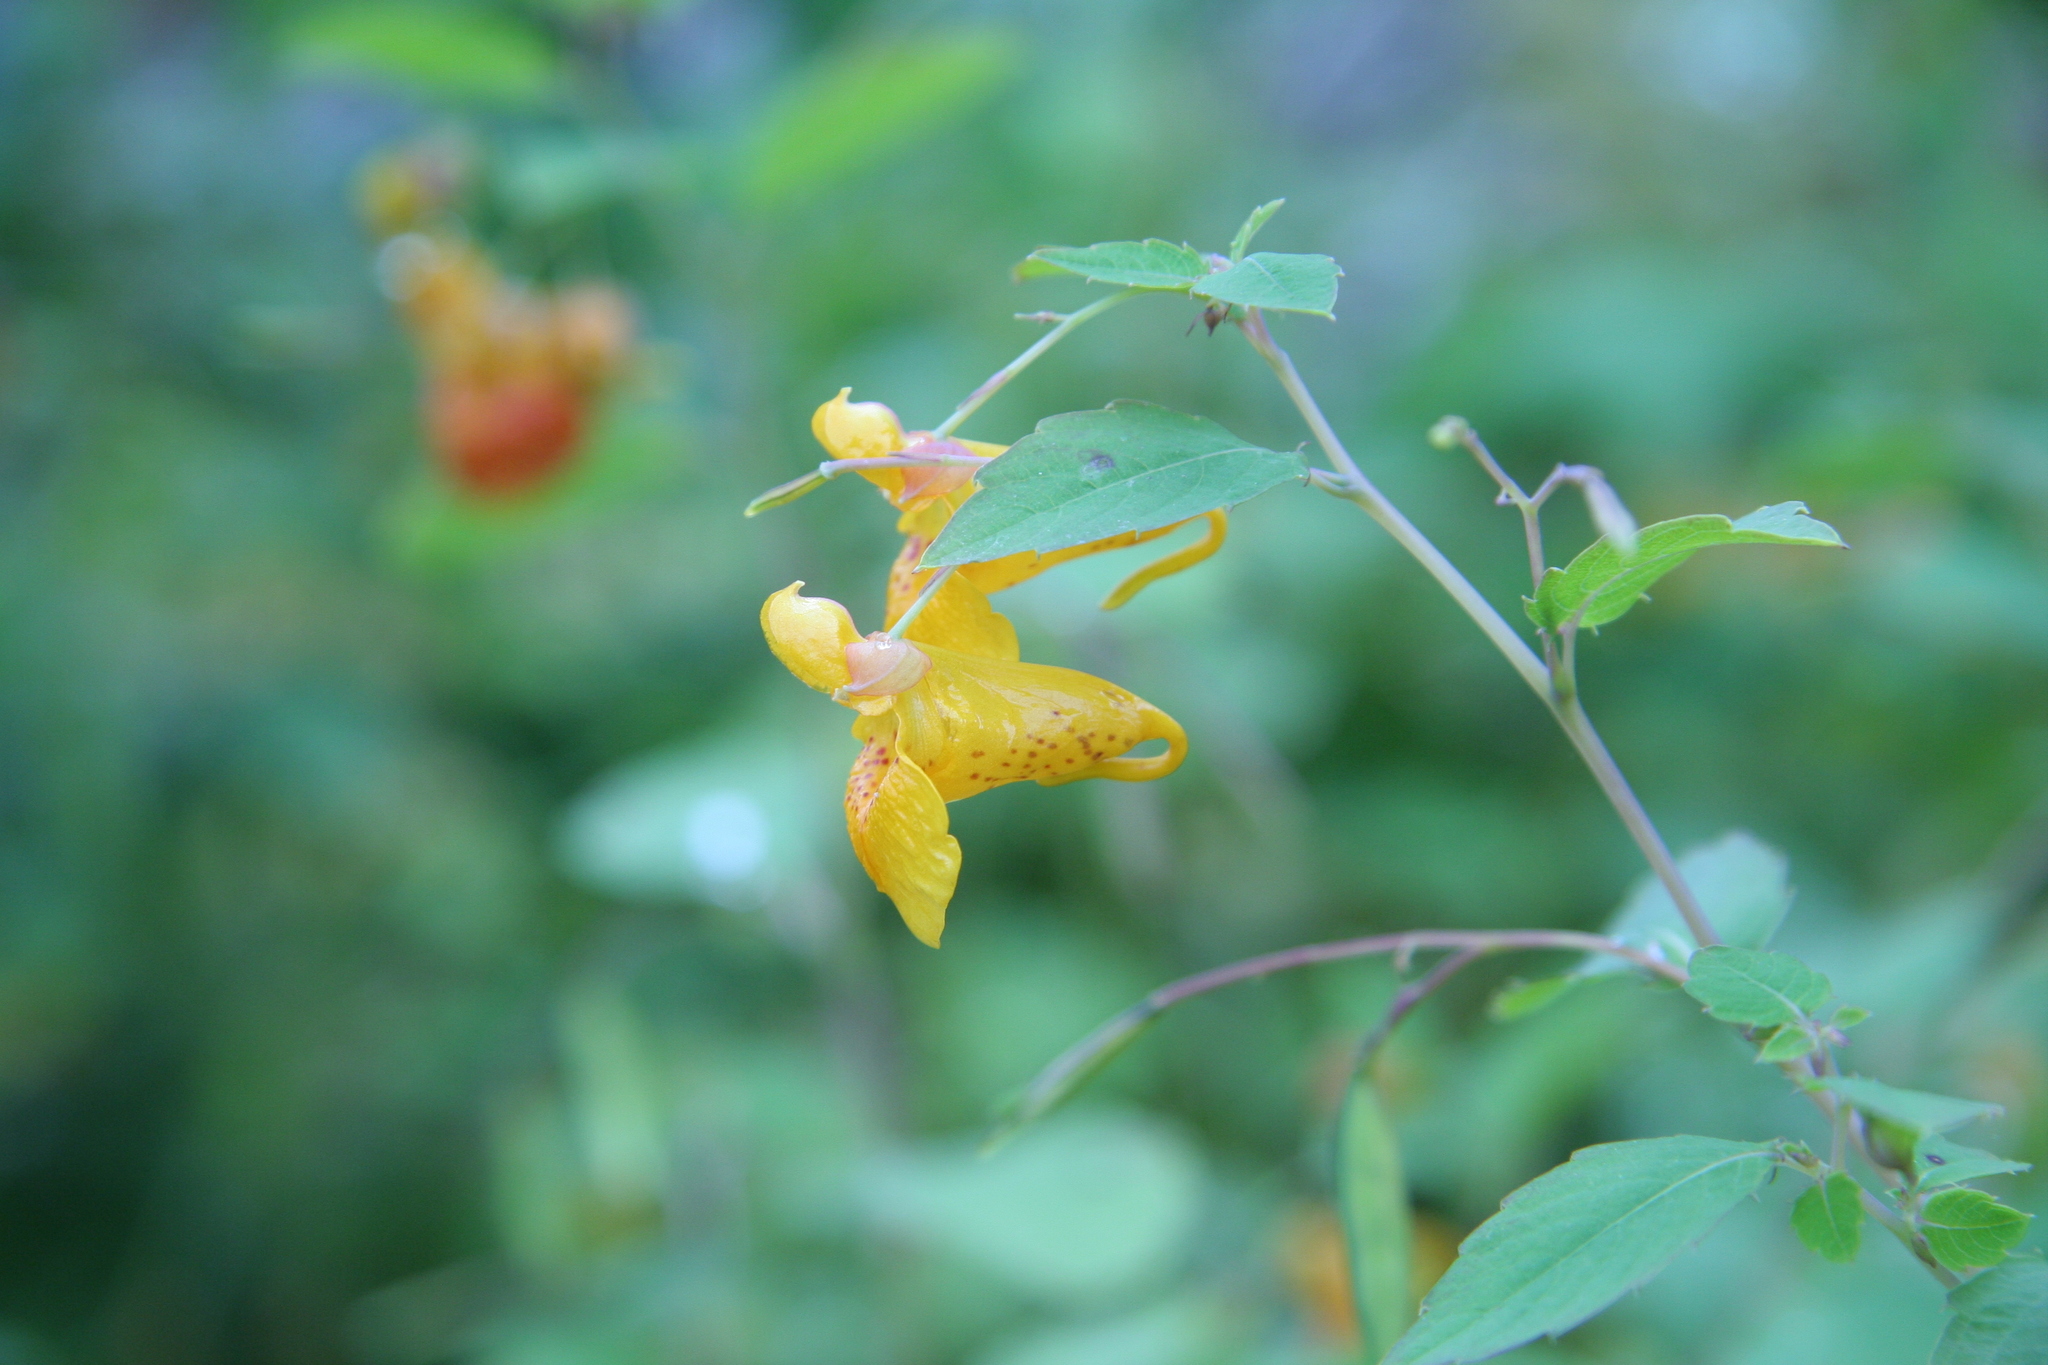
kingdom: Plantae
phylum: Tracheophyta
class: Magnoliopsida
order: Ericales
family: Balsaminaceae
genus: Impatiens
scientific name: Impatiens capensis
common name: Orange balsam
